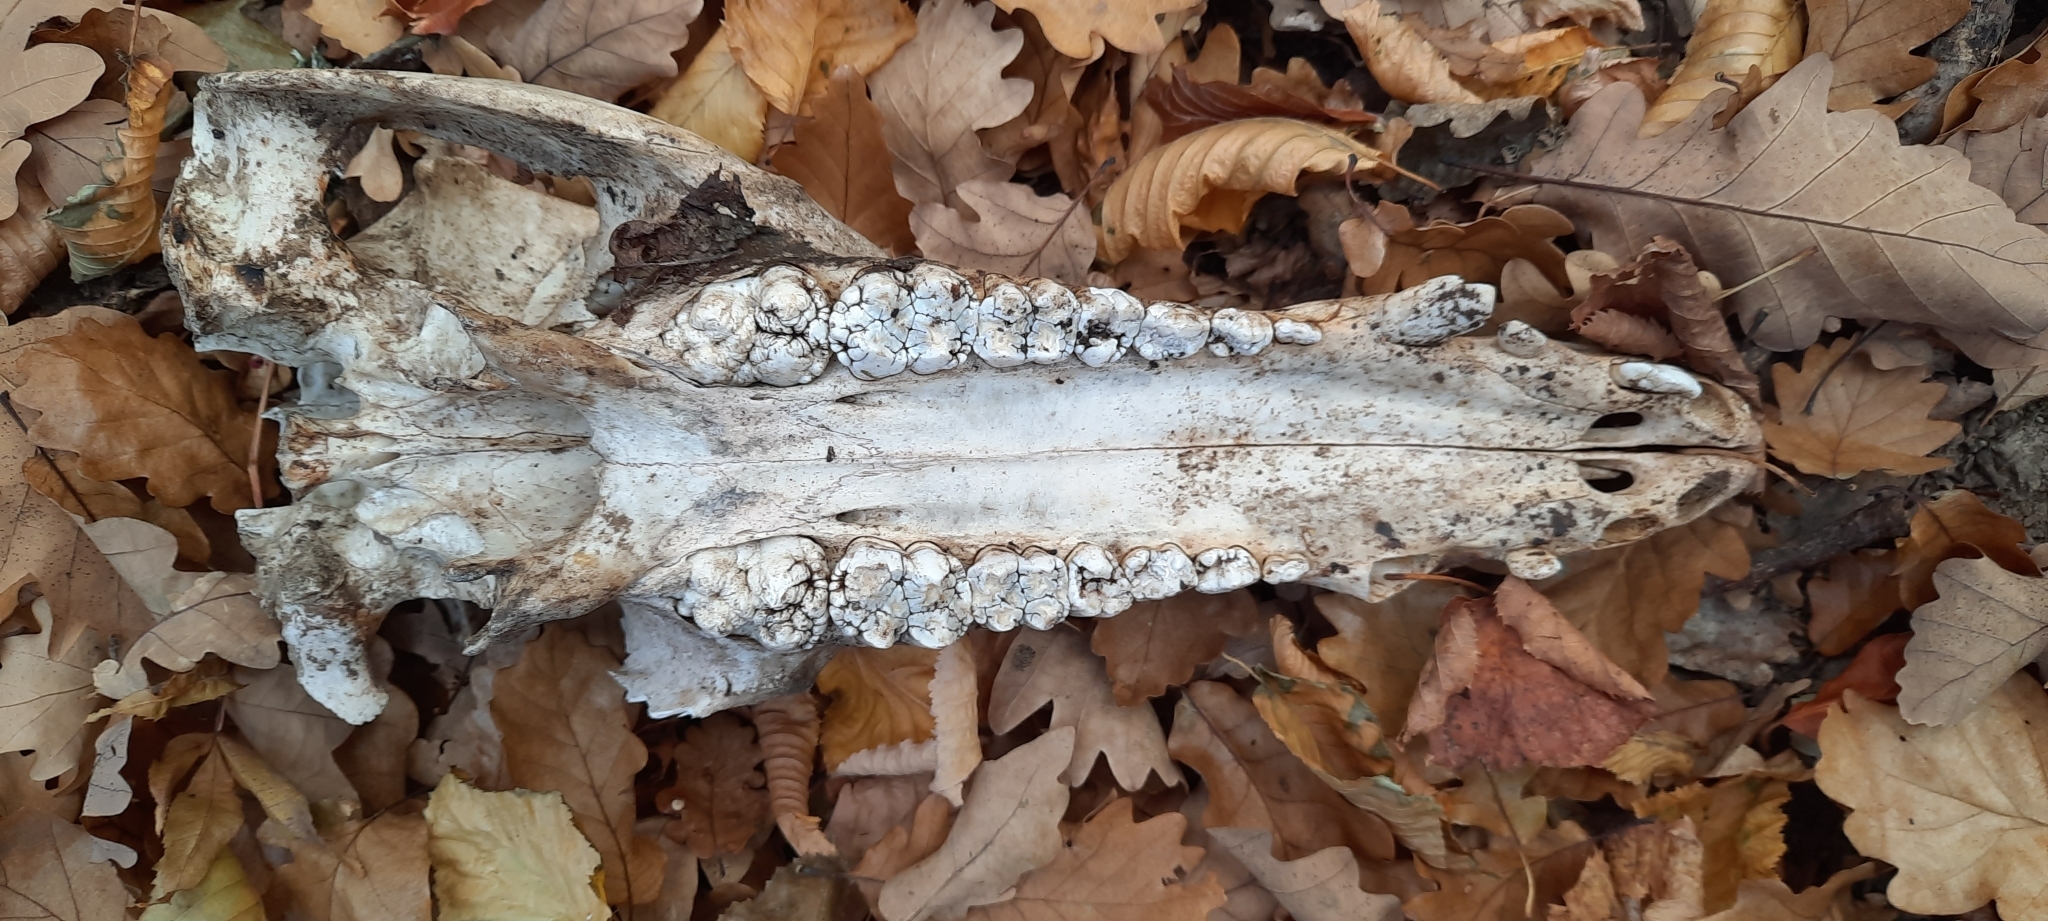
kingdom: Animalia
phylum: Chordata
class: Mammalia
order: Artiodactyla
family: Suidae
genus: Sus
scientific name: Sus scrofa
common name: Wild boar
